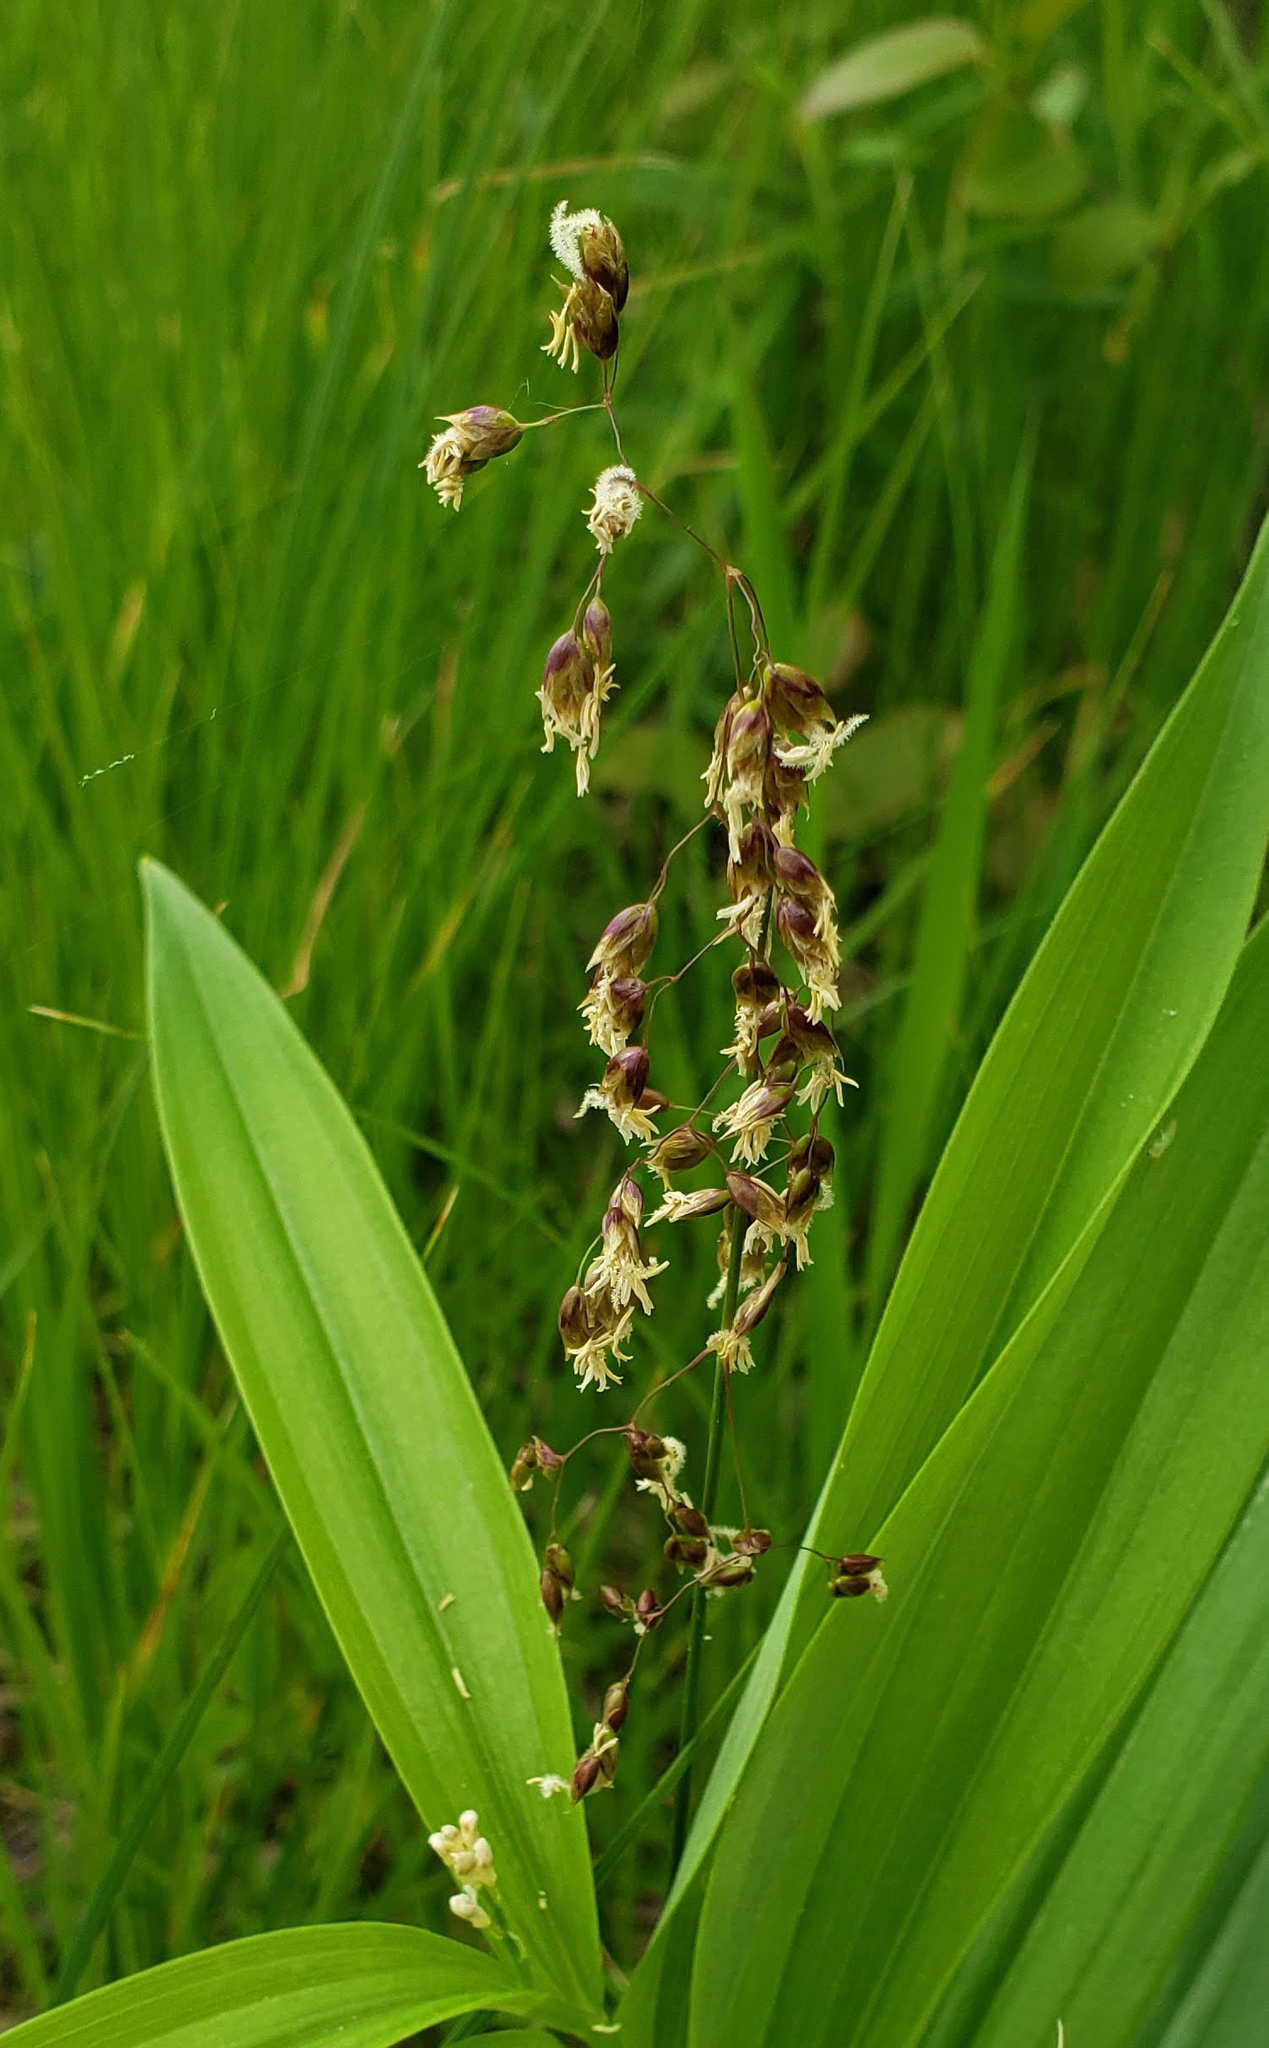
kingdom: Plantae
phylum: Tracheophyta
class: Liliopsida
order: Poales
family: Poaceae
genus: Anthoxanthum
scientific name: Anthoxanthum nitens
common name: Holy grass
